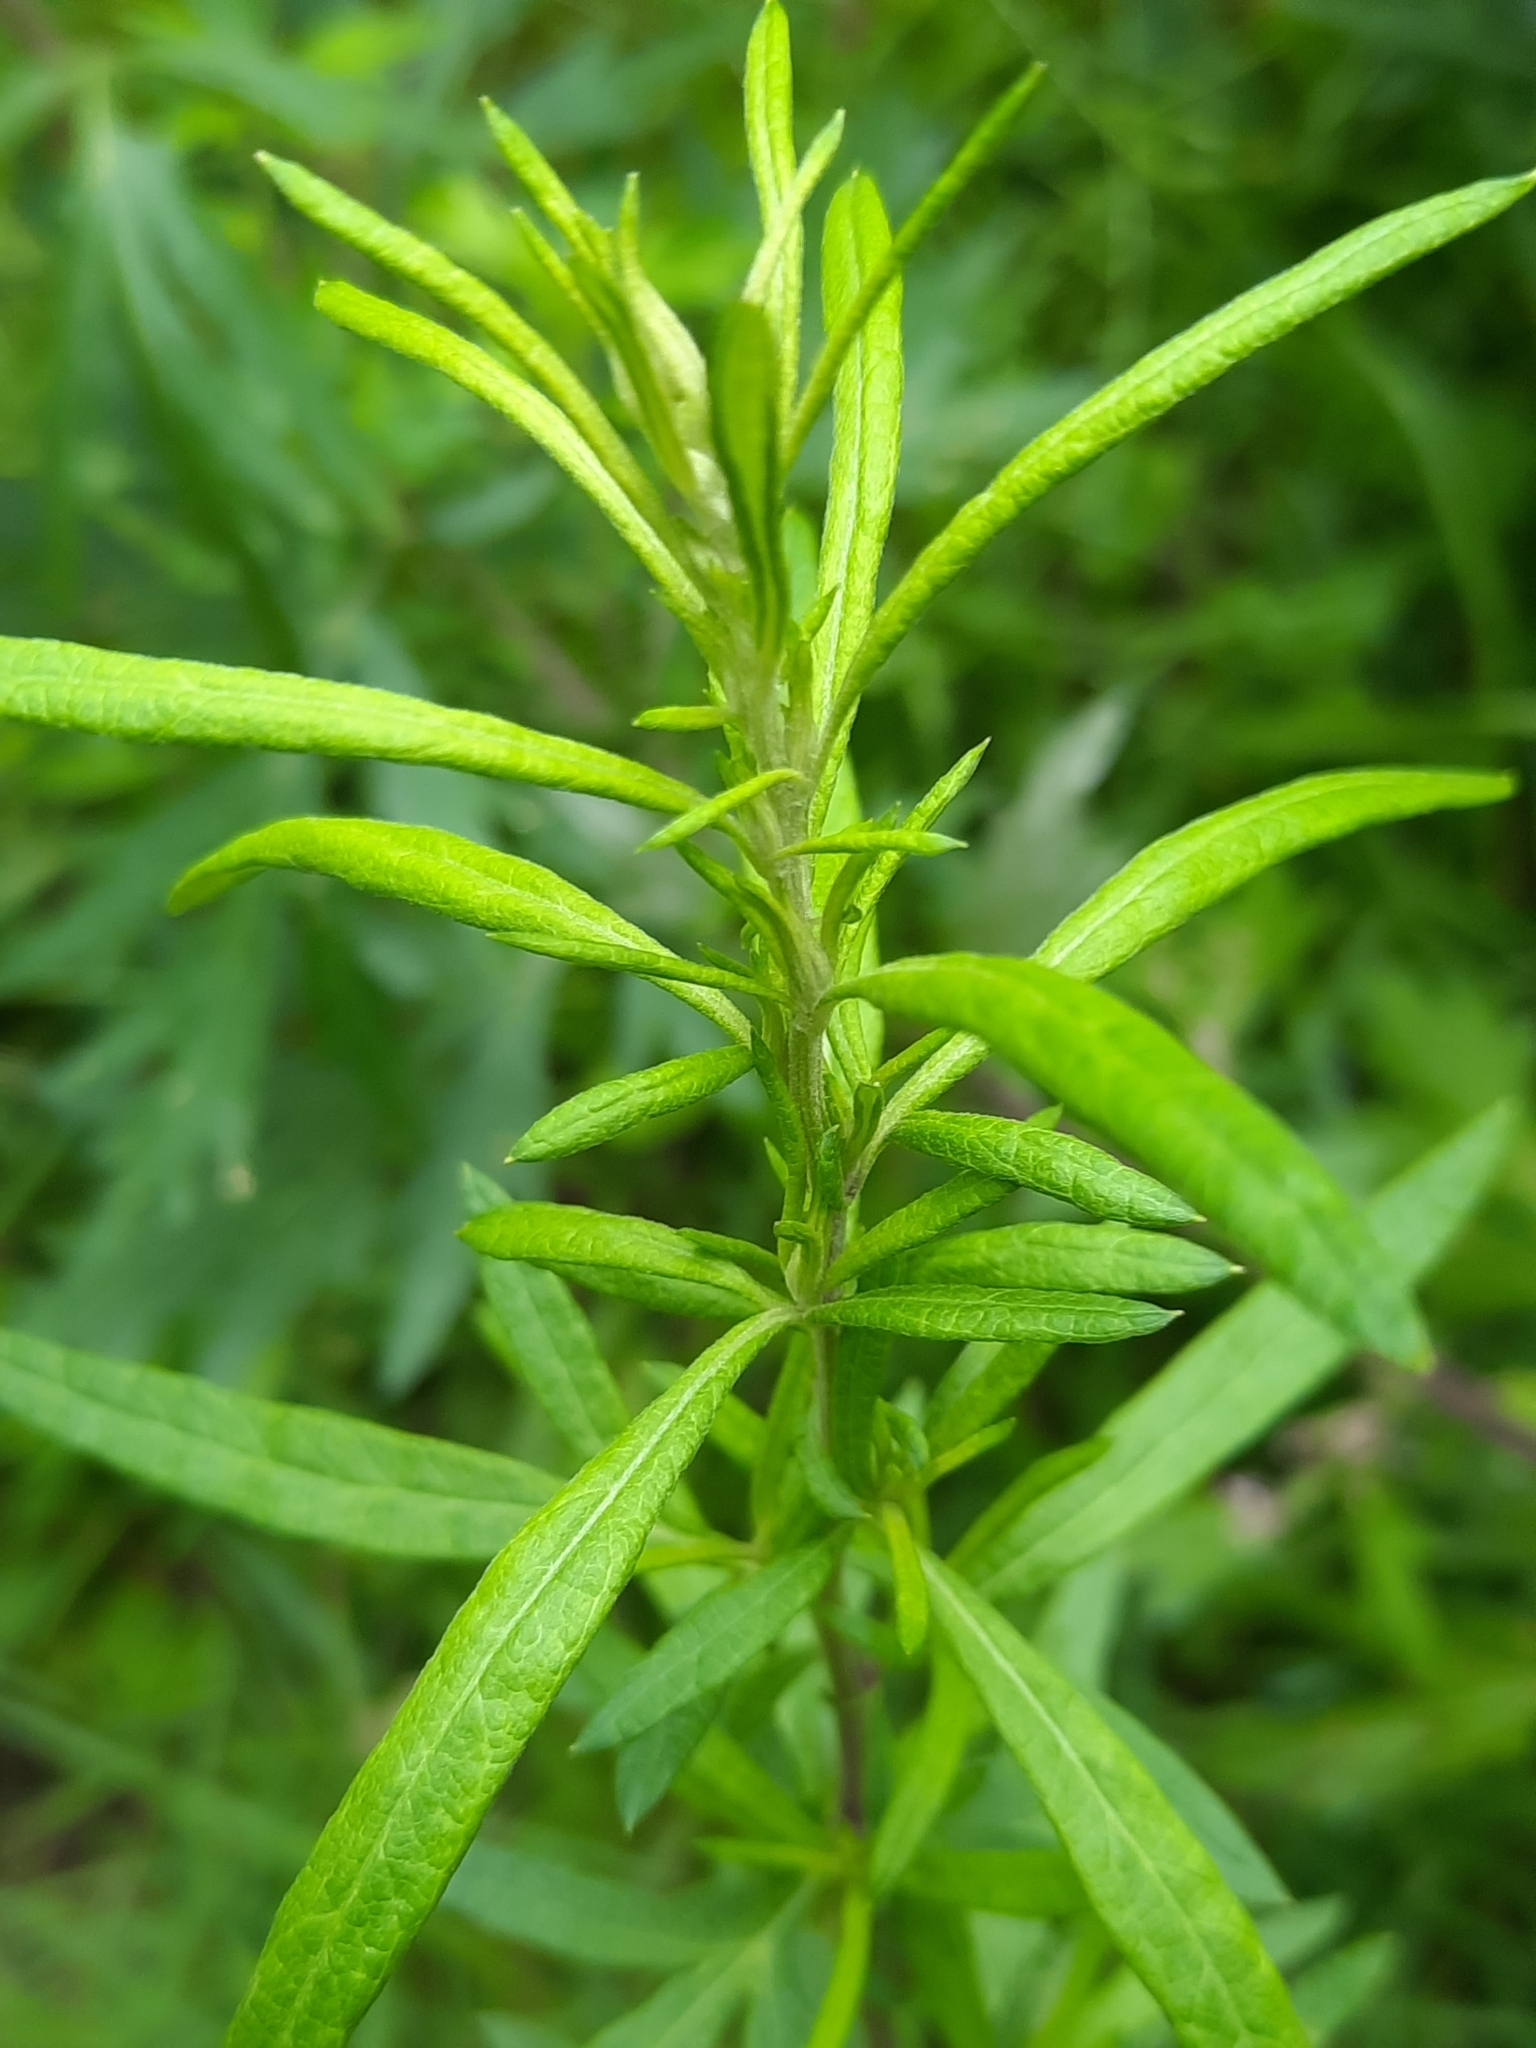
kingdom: Plantae
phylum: Tracheophyta
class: Magnoliopsida
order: Asterales
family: Asteraceae
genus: Artemisia
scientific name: Artemisia vulgaris
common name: Mugwort
